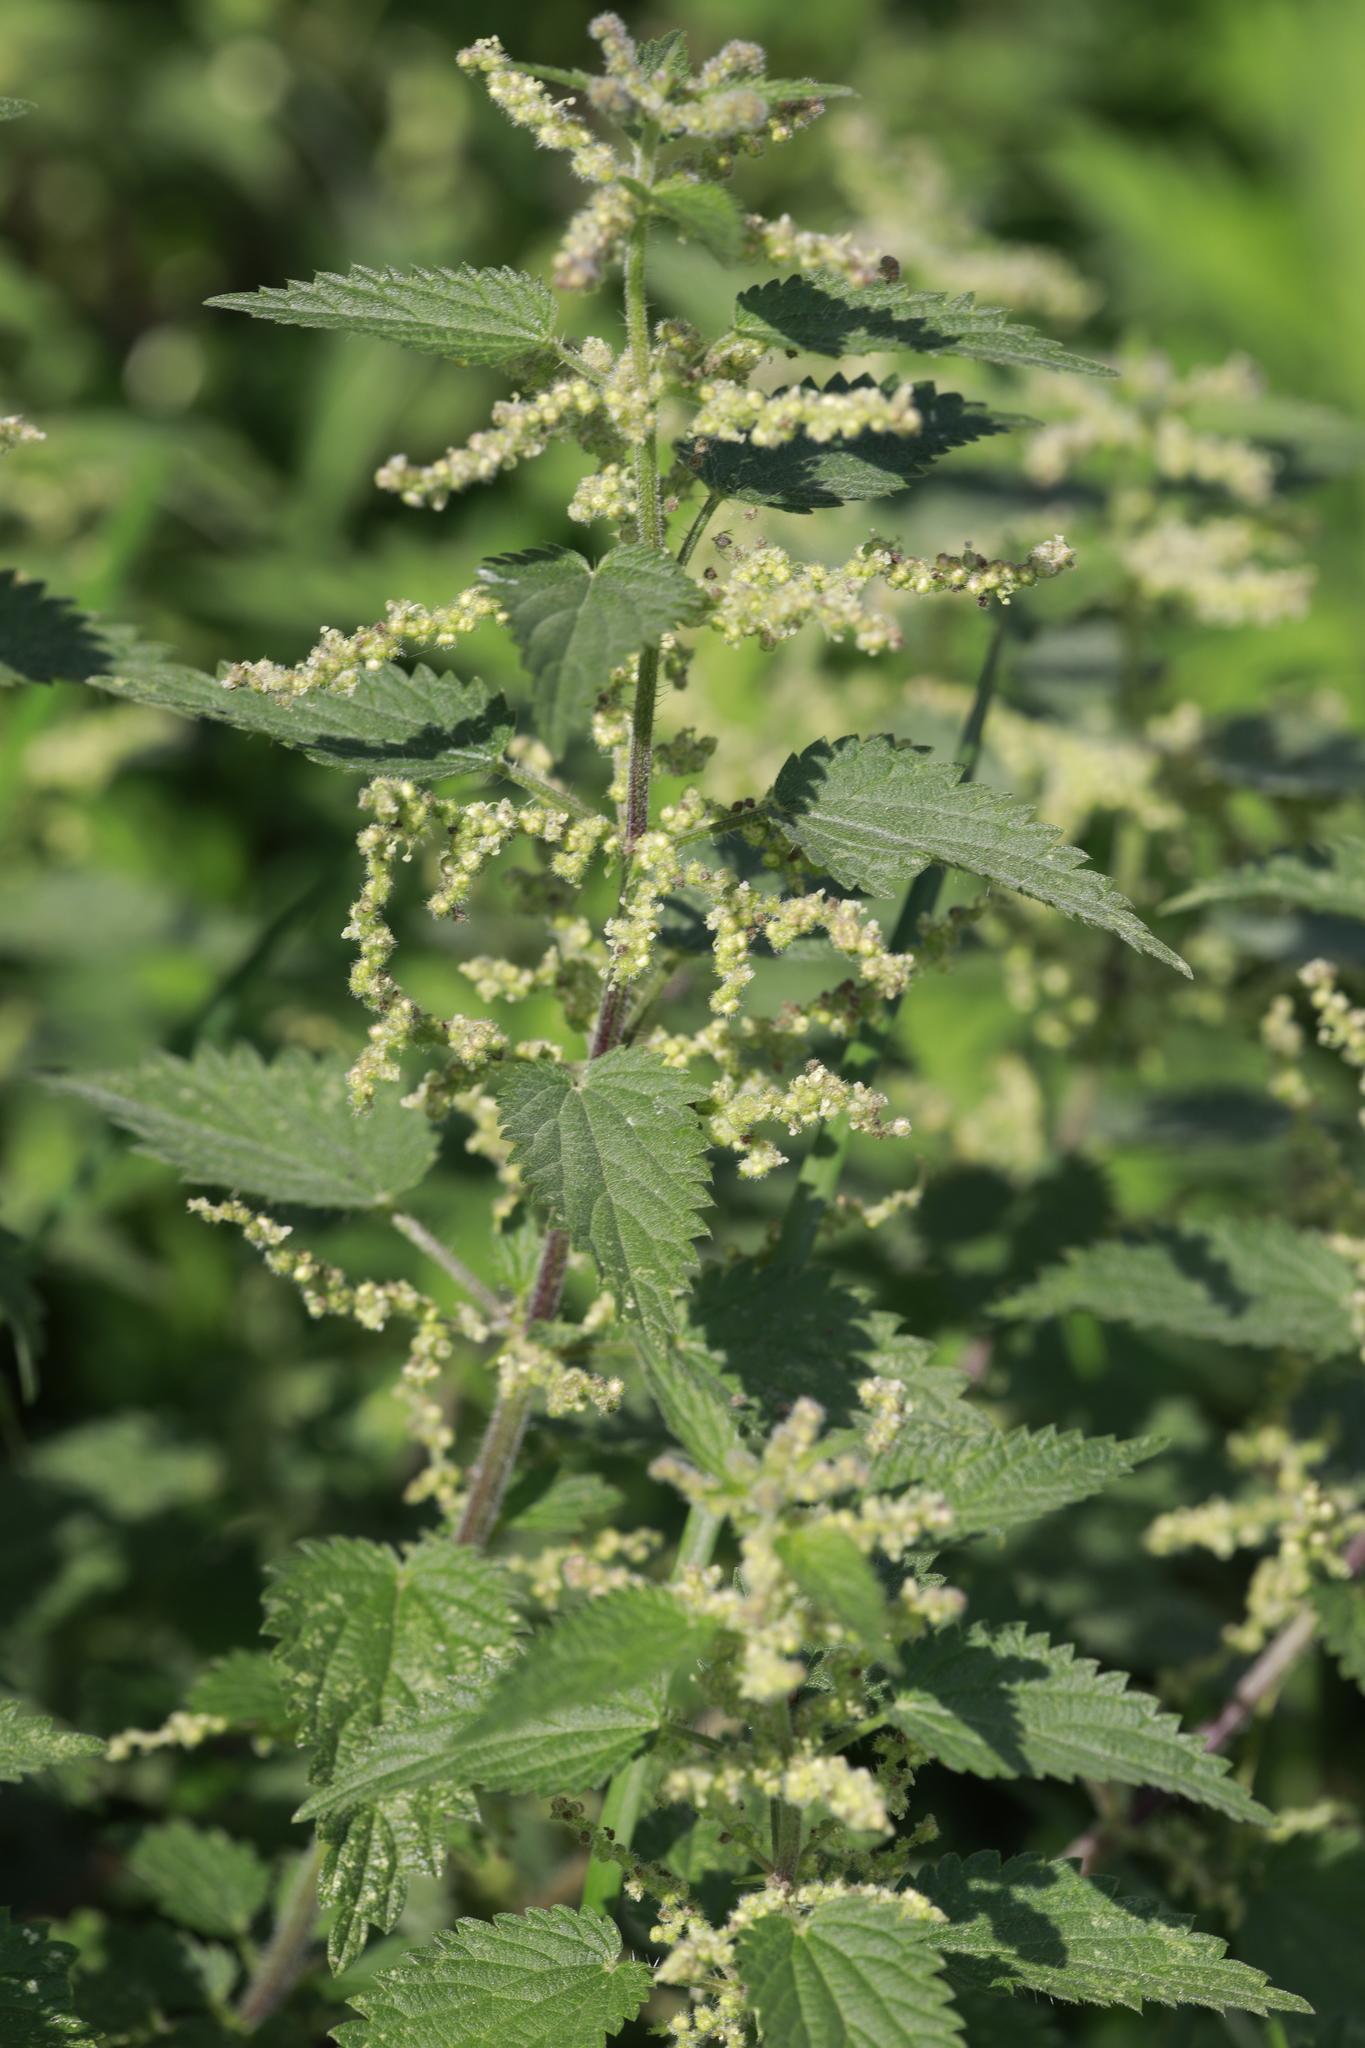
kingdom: Plantae
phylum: Tracheophyta
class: Magnoliopsida
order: Rosales
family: Urticaceae
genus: Urtica
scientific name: Urtica dioica
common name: Common nettle
